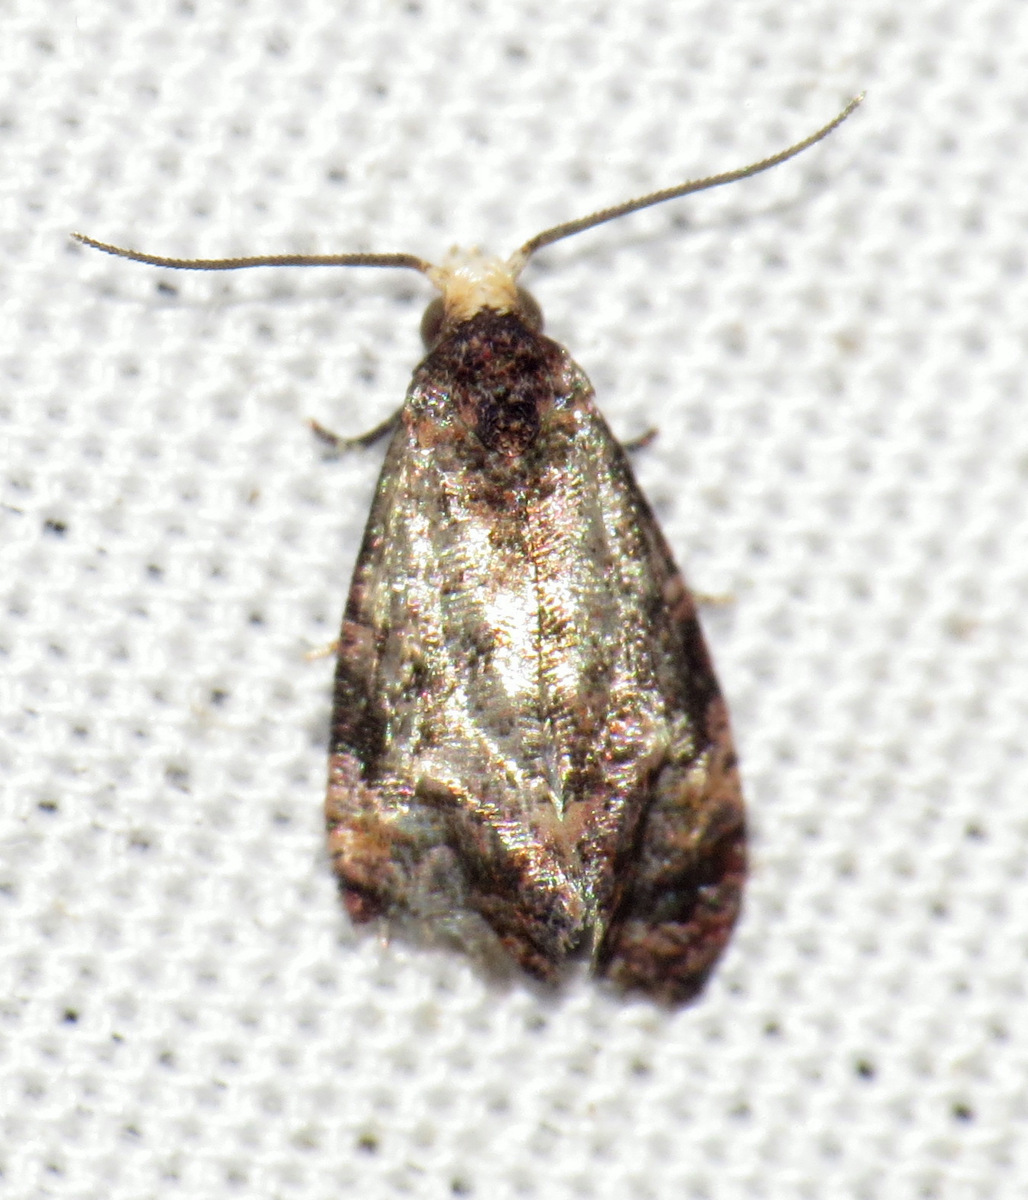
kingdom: Animalia
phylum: Arthropoda
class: Insecta
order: Lepidoptera
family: Tortricidae
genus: Phalonia
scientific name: Phalonia cephalanthana
